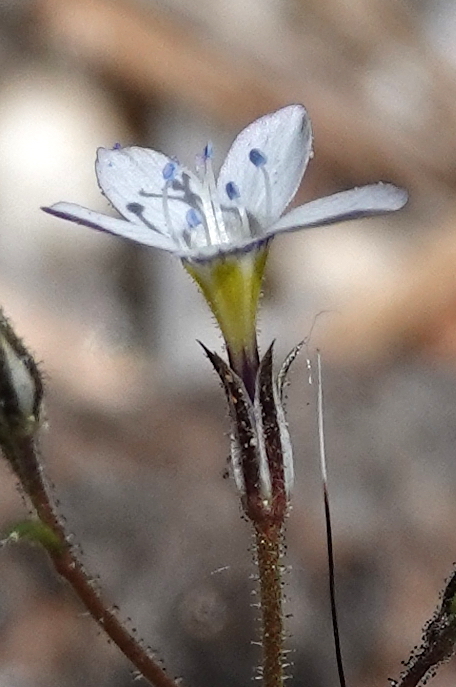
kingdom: Plantae
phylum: Tracheophyta
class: Magnoliopsida
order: Ericales
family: Polemoniaceae
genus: Gilia
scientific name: Gilia diegensis
